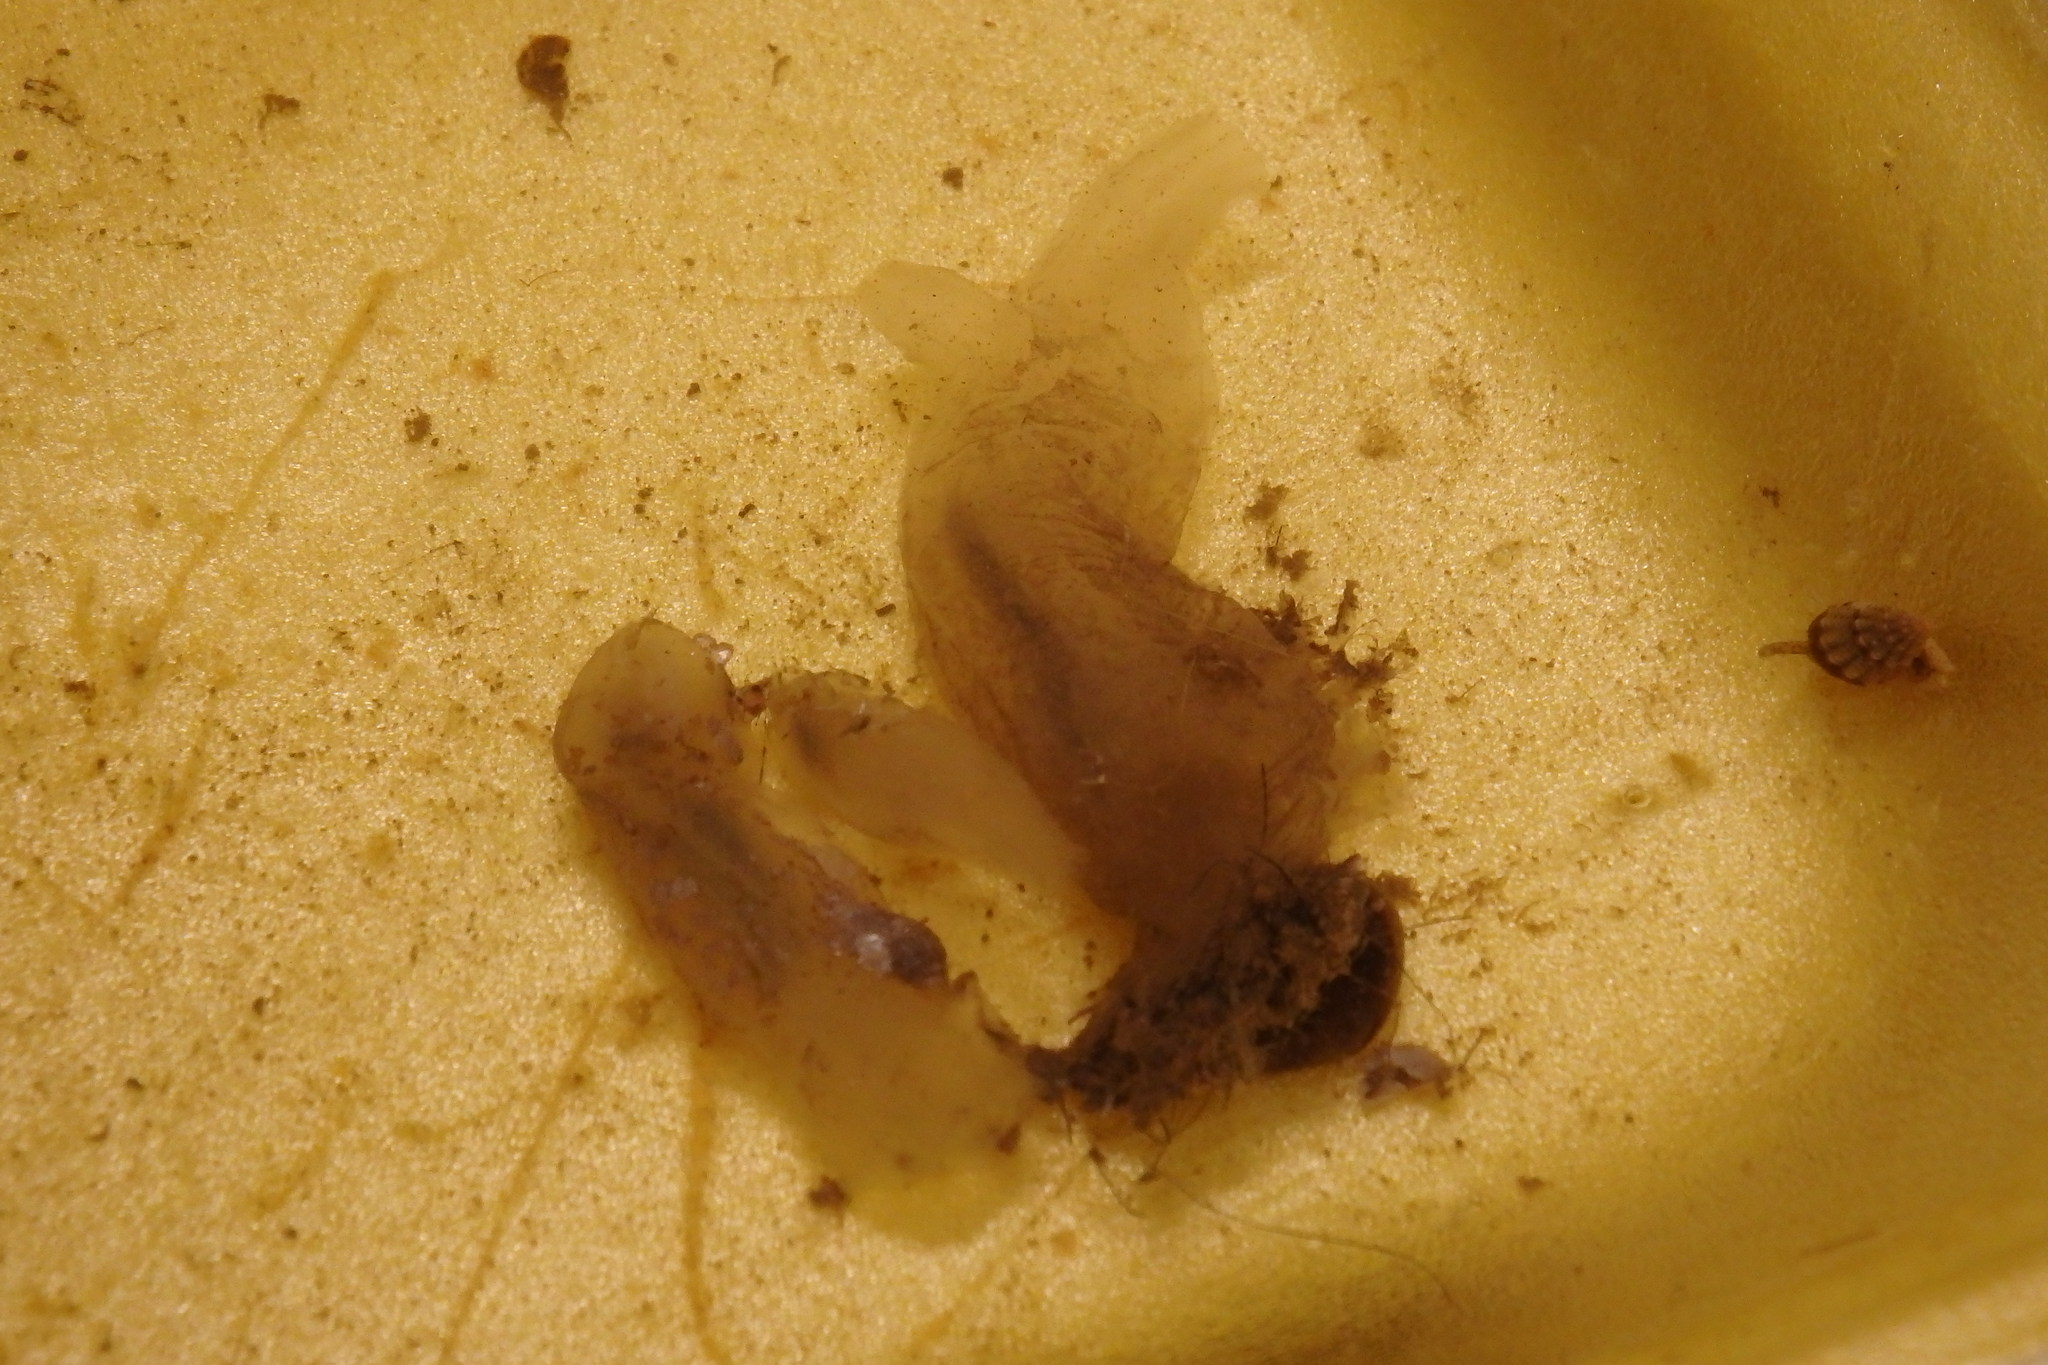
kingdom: Animalia
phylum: Chordata
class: Ascidiacea
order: Phlebobranchia
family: Cionidae
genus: Ciona
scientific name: Ciona intestinalis
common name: Vase tunicate
